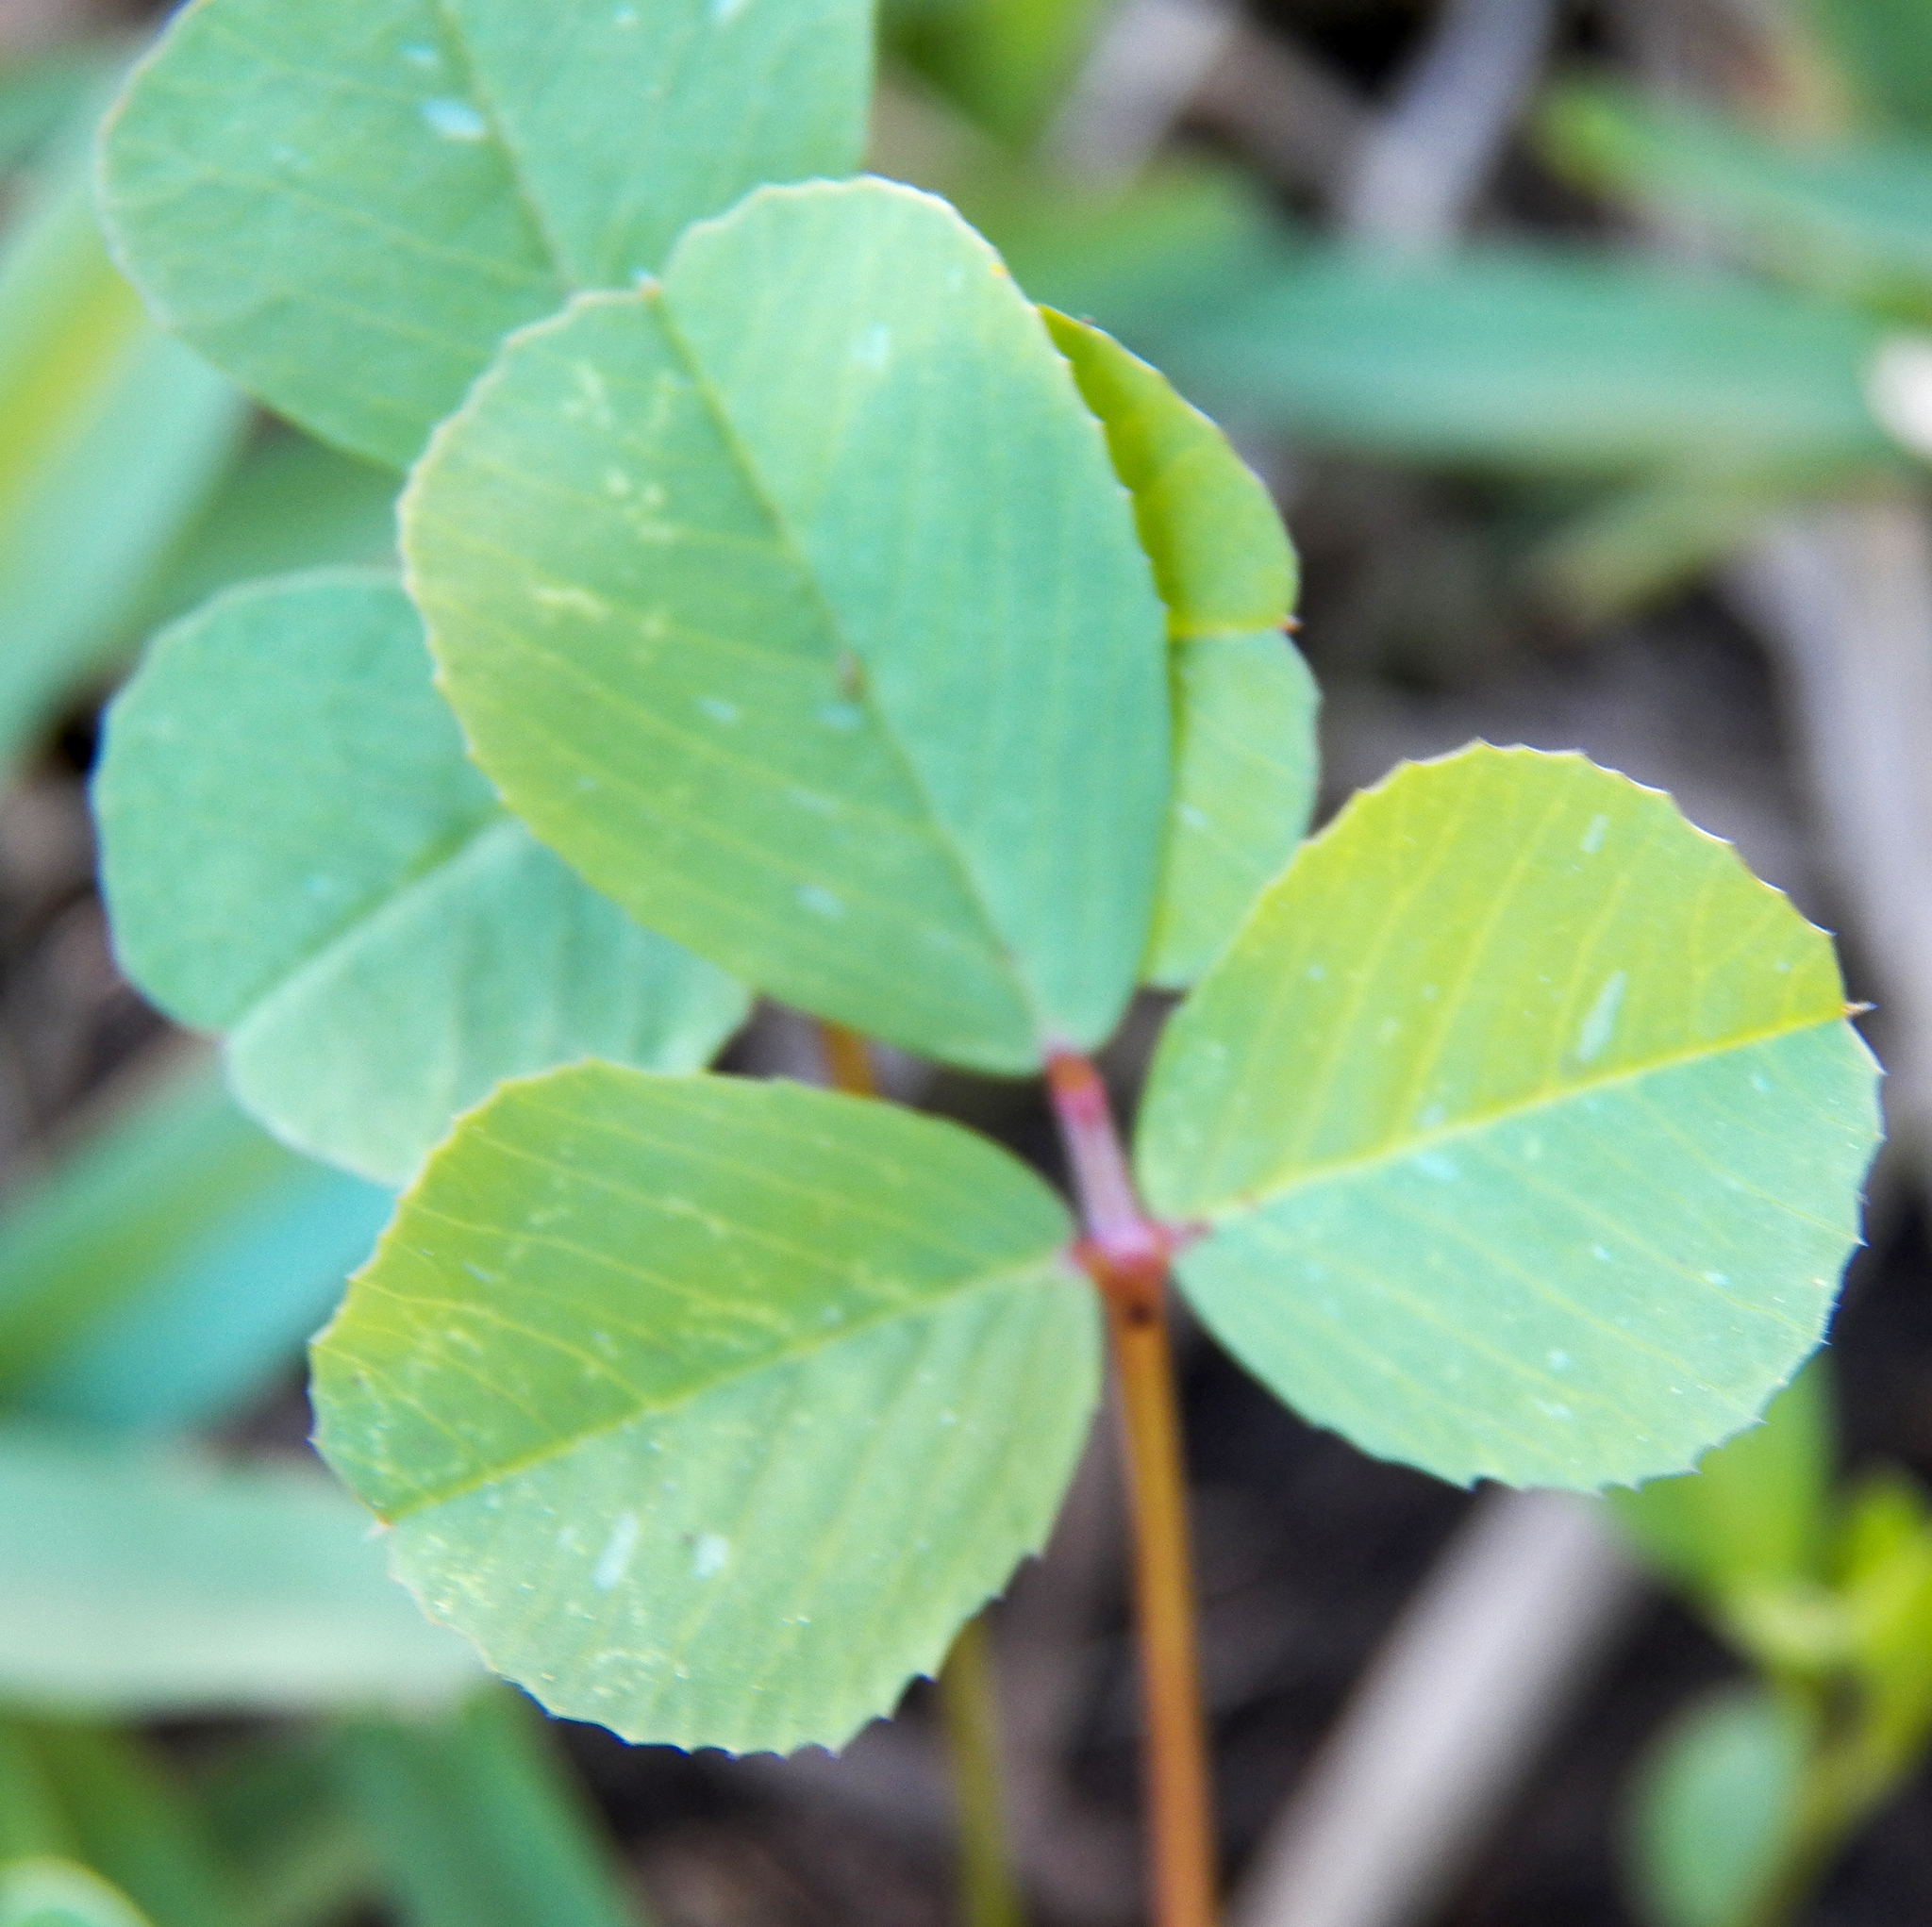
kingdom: Plantae
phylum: Tracheophyta
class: Magnoliopsida
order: Fabales
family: Fabaceae
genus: Medicago
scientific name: Medicago polymorpha
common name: Burclover
